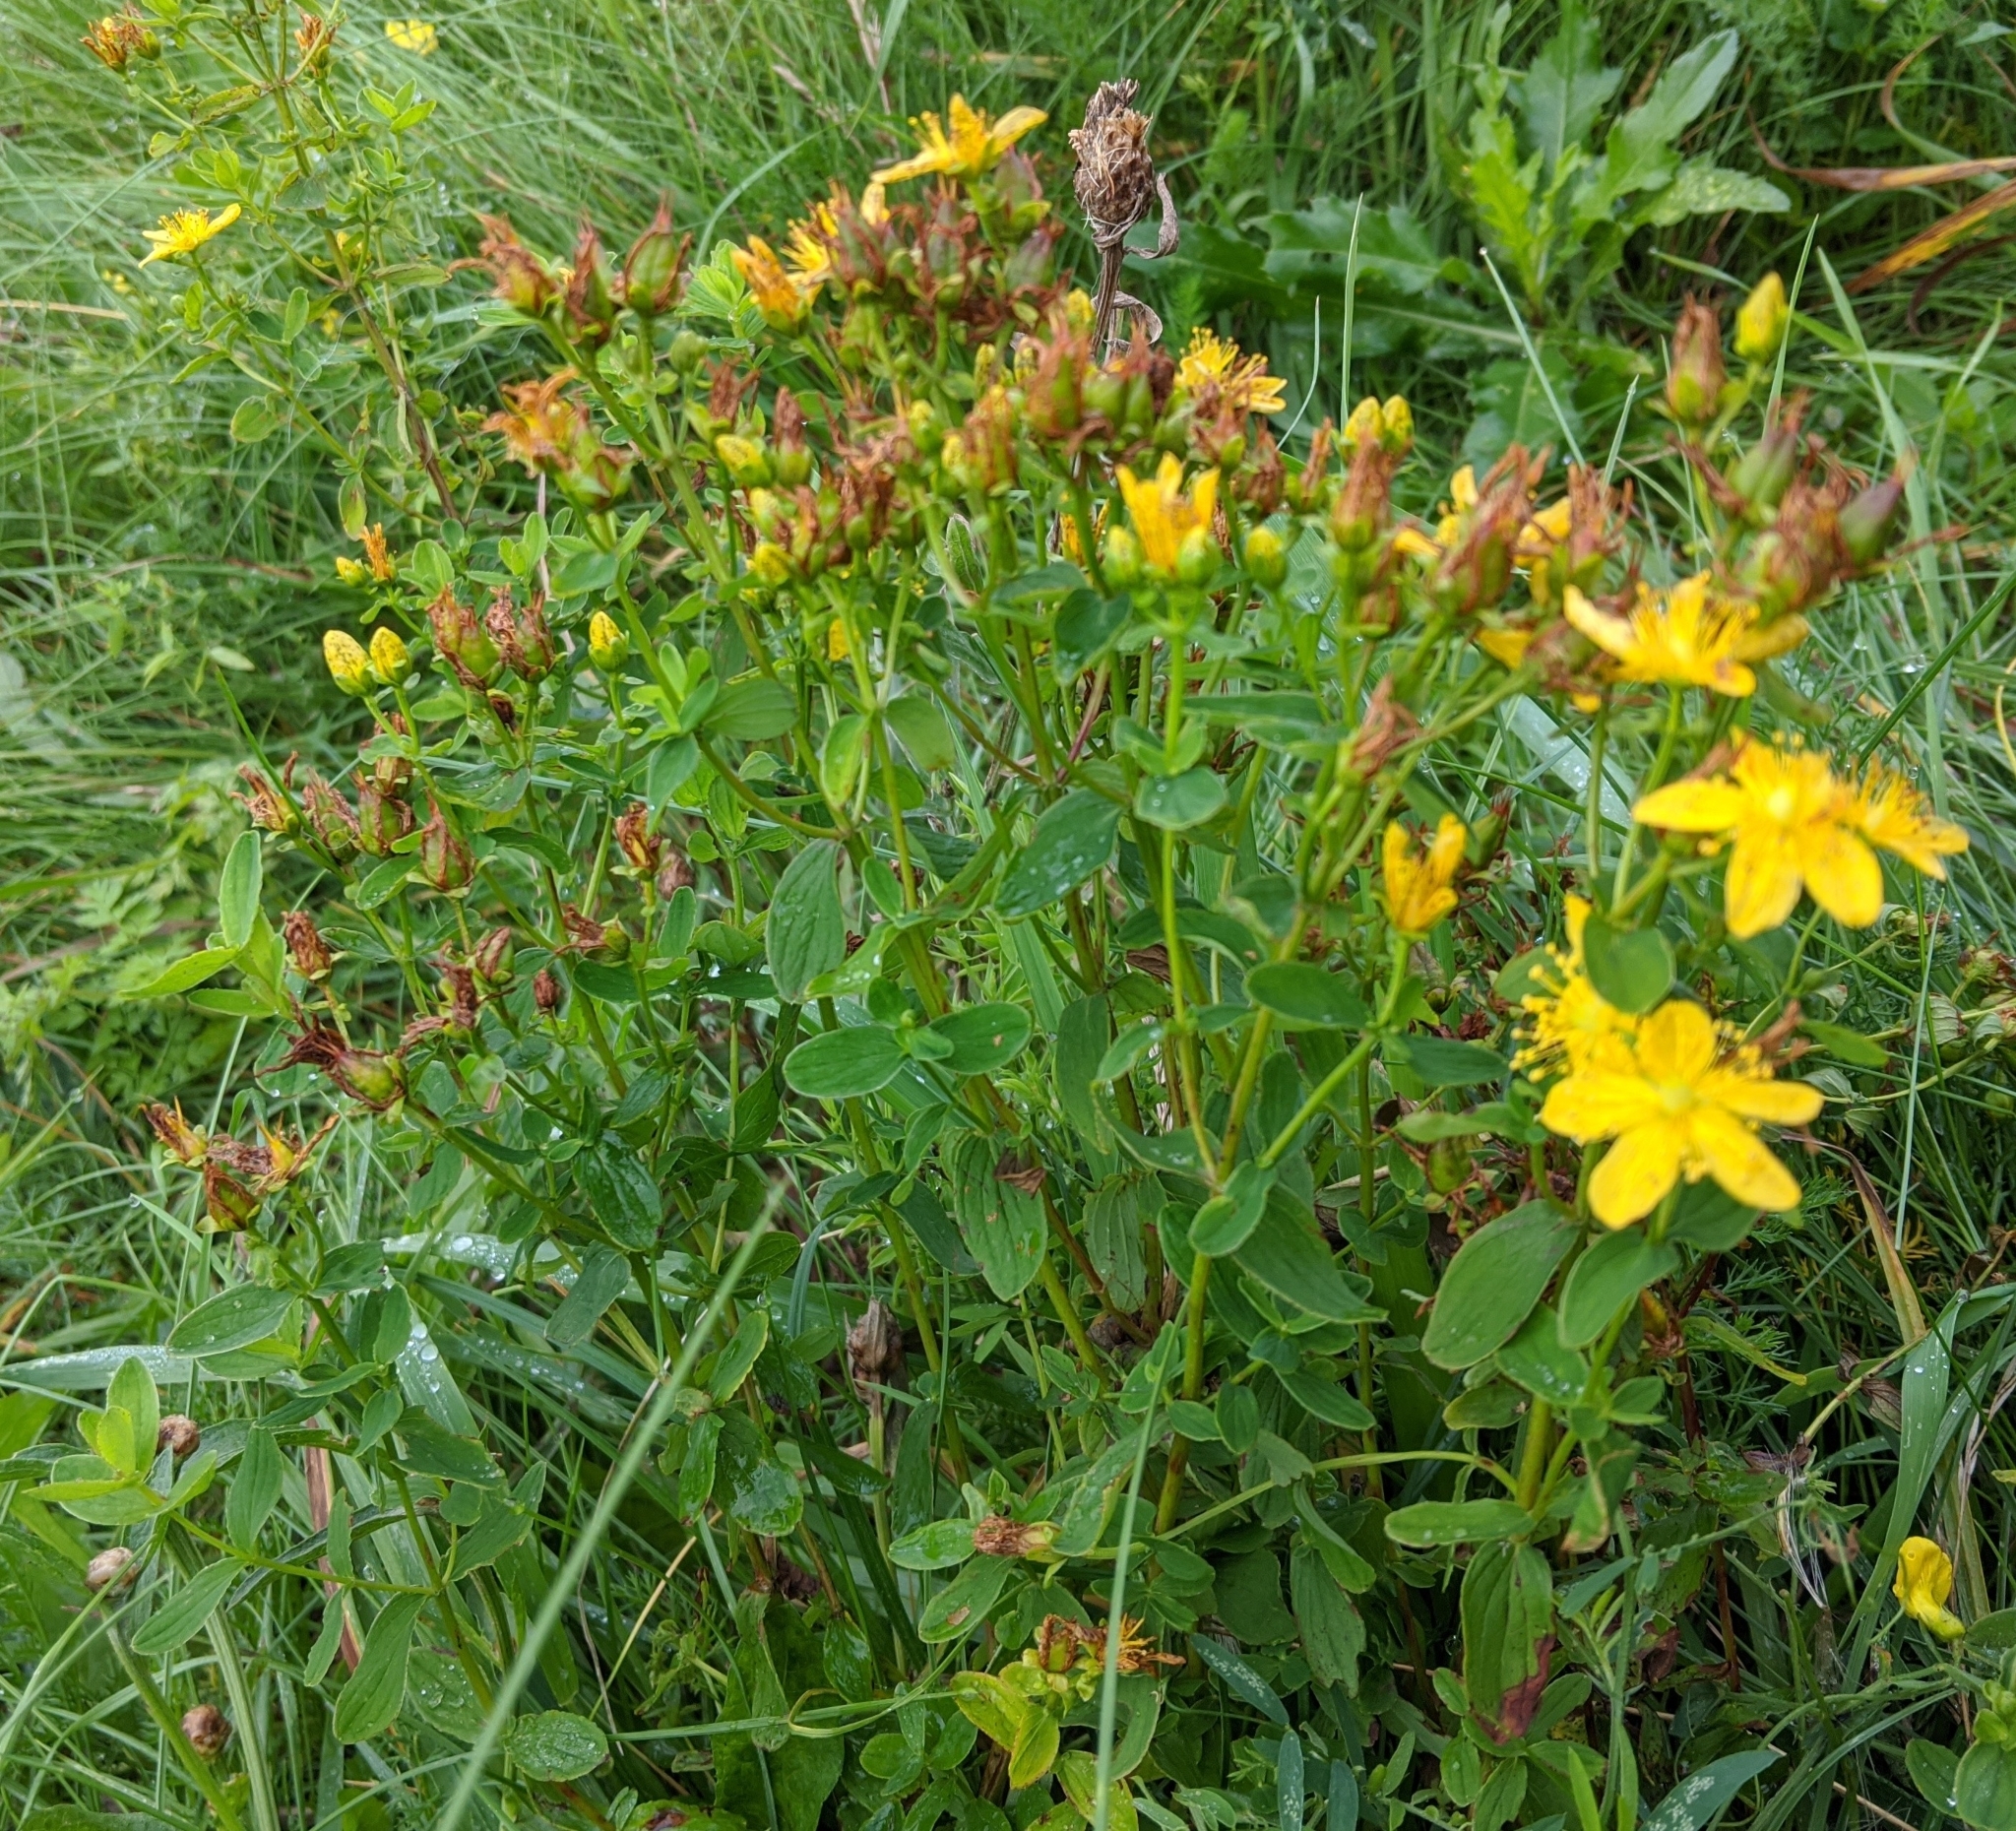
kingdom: Plantae
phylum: Tracheophyta
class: Magnoliopsida
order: Malpighiales
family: Hypericaceae
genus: Hypericum
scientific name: Hypericum maculatum
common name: Imperforate st. john's-wort
